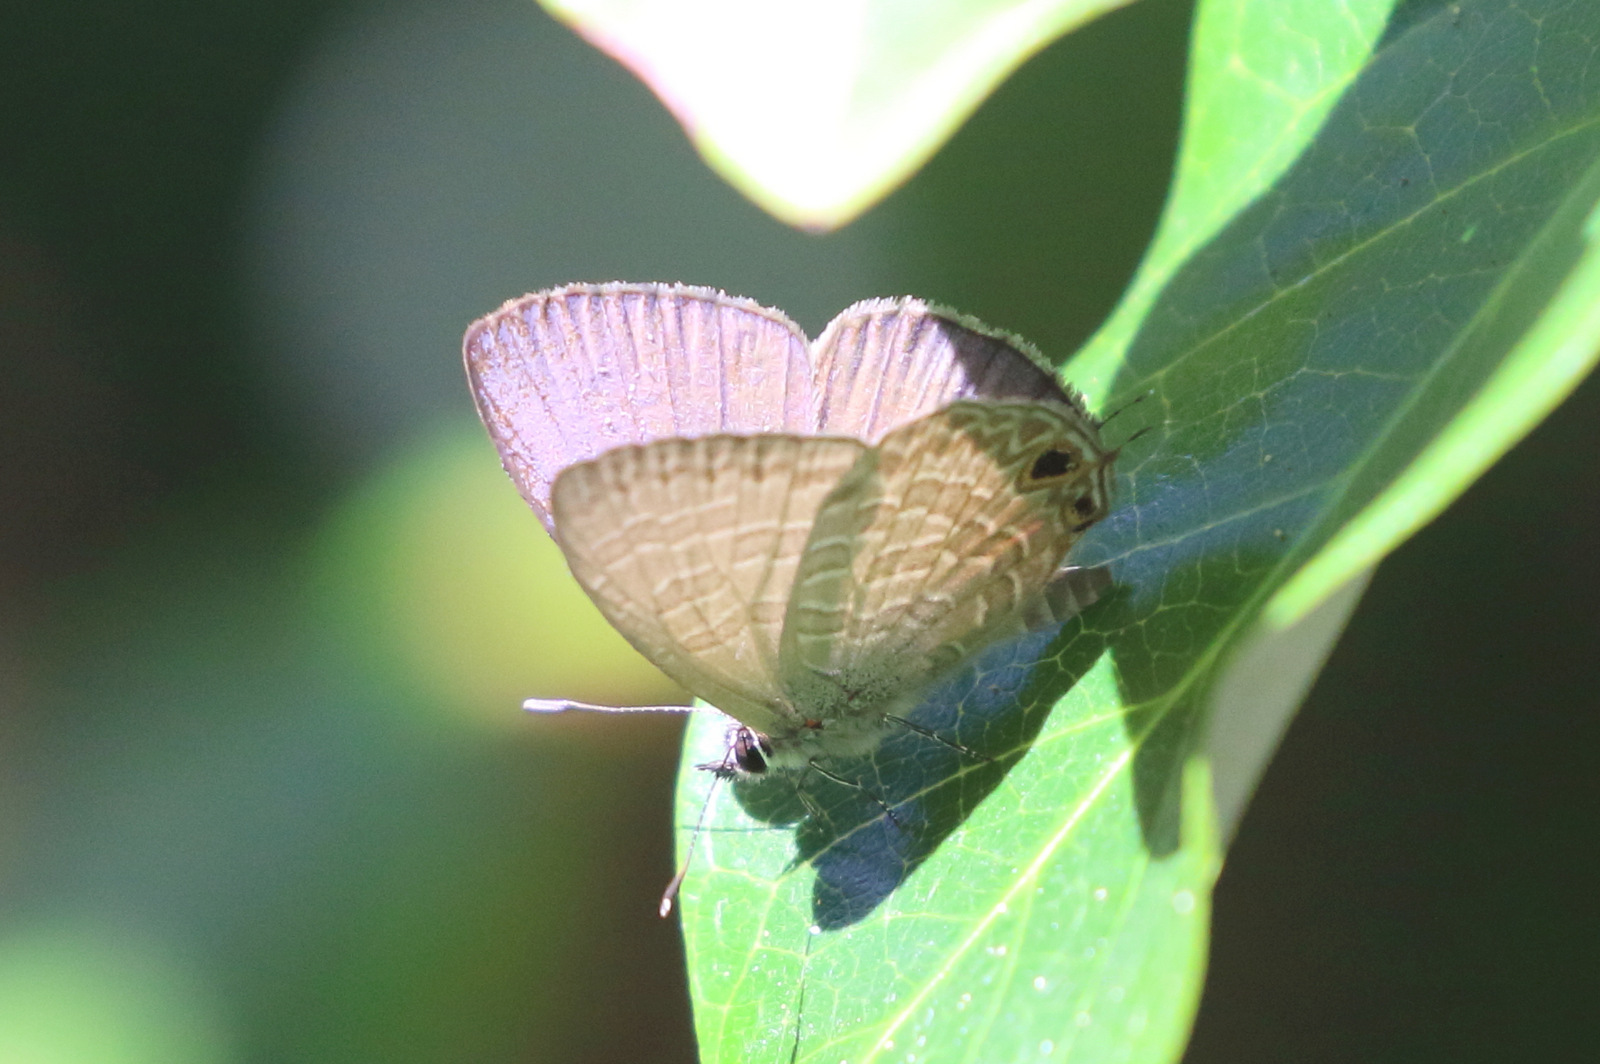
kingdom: Animalia
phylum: Arthropoda
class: Insecta
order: Lepidoptera
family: Lycaenidae
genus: Nacaduba
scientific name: Nacaduba berenice
